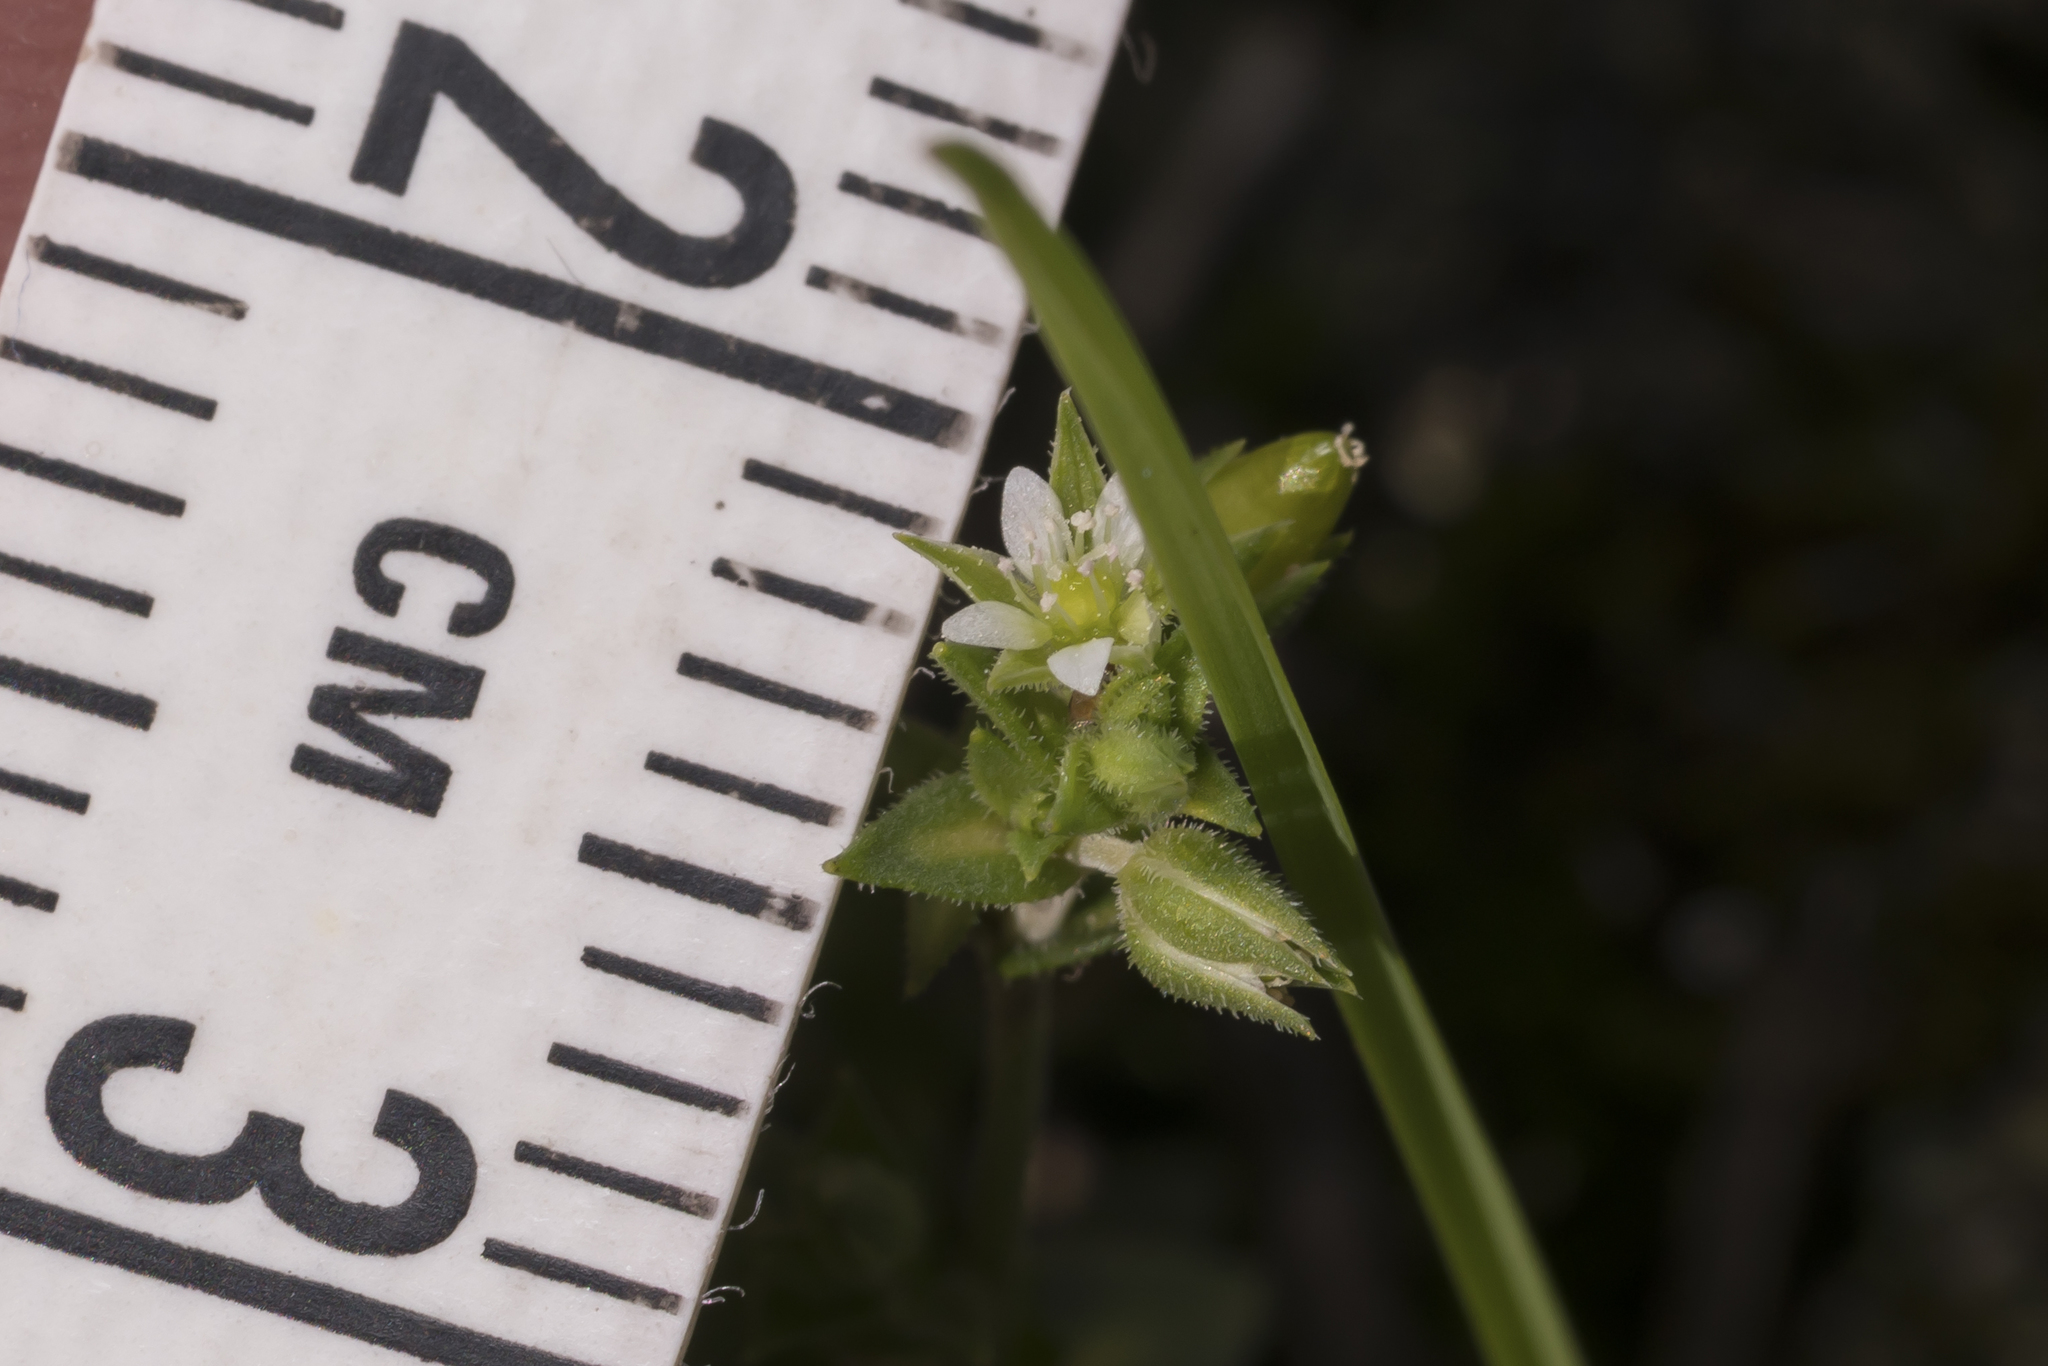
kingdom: Plantae
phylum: Tracheophyta
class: Magnoliopsida
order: Caryophyllales
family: Caryophyllaceae
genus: Arenaria
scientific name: Arenaria serpyllifolia
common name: Thyme-leaved sandwort
